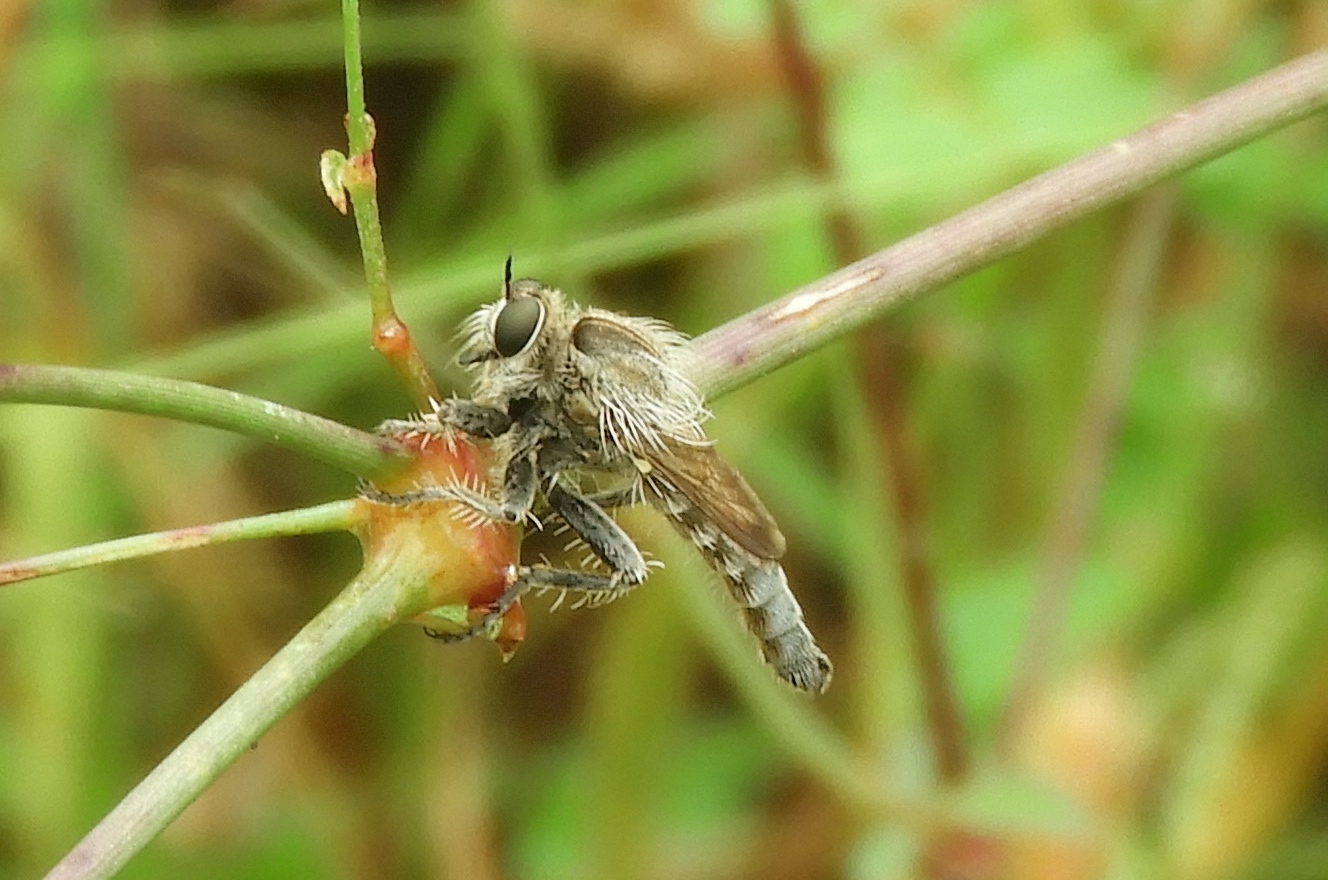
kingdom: Animalia
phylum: Arthropoda
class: Insecta
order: Diptera
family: Asilidae
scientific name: Asilidae
